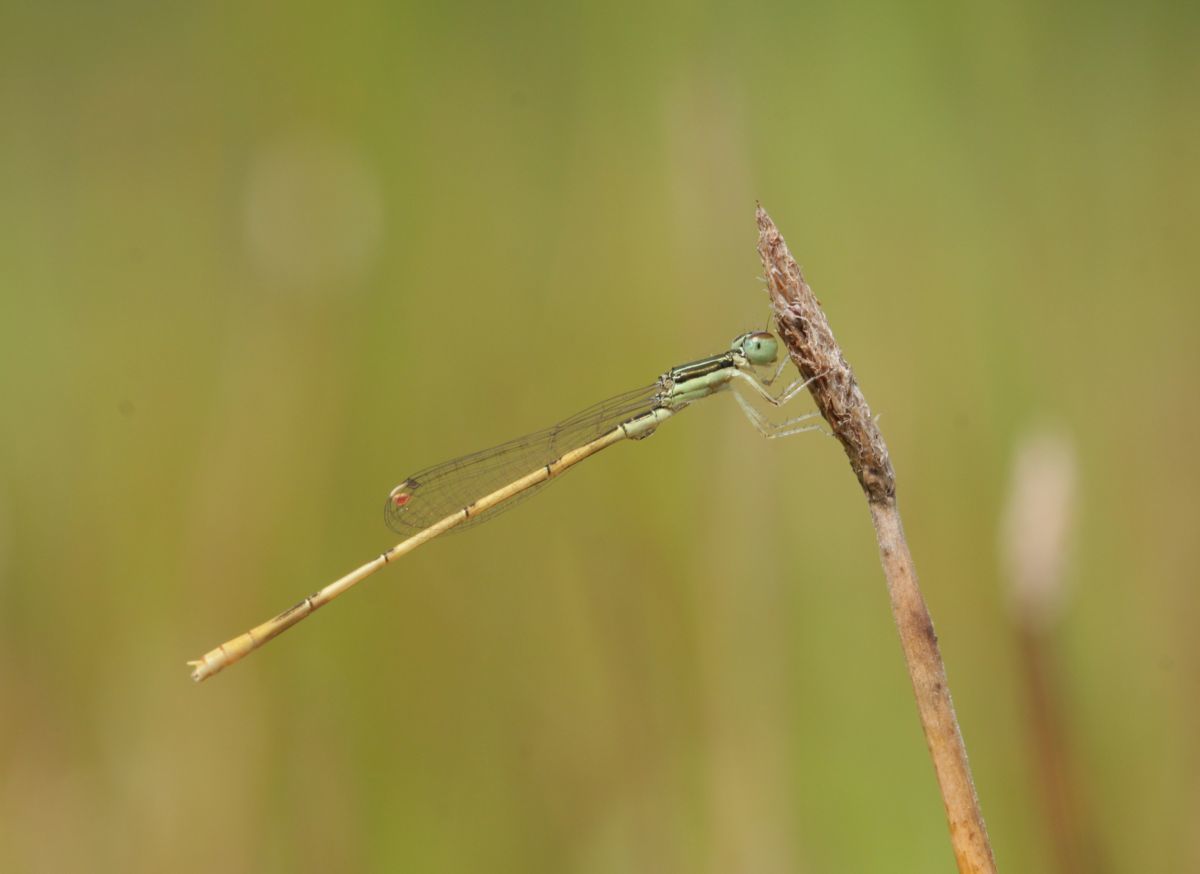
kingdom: Animalia
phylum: Arthropoda
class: Insecta
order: Odonata
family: Coenagrionidae
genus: Ischnura
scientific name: Ischnura hastata
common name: Citrine forktail
